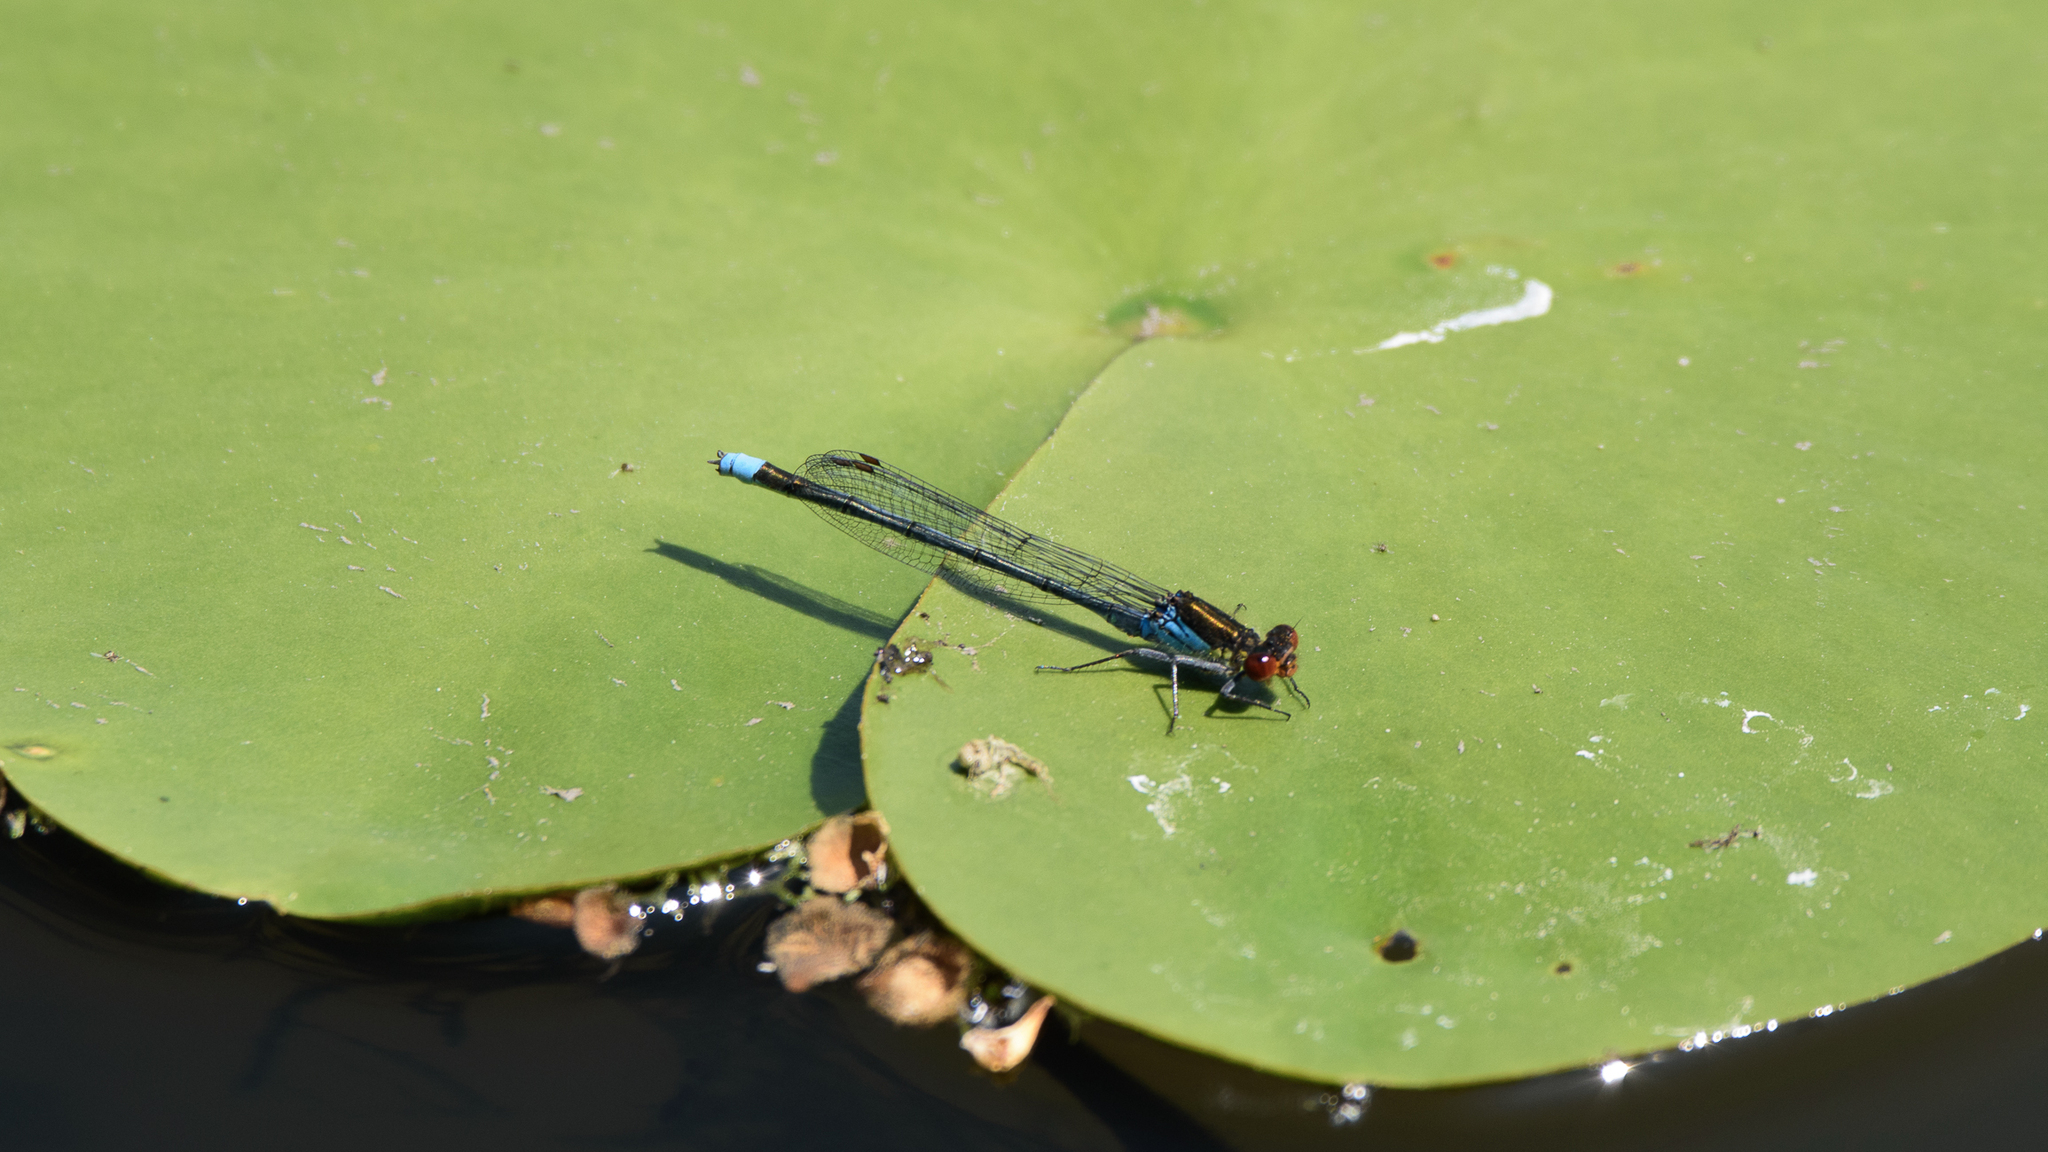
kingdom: Animalia
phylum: Arthropoda
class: Insecta
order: Odonata
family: Coenagrionidae
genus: Erythromma
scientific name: Erythromma najas
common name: Red-eyed damselfly
